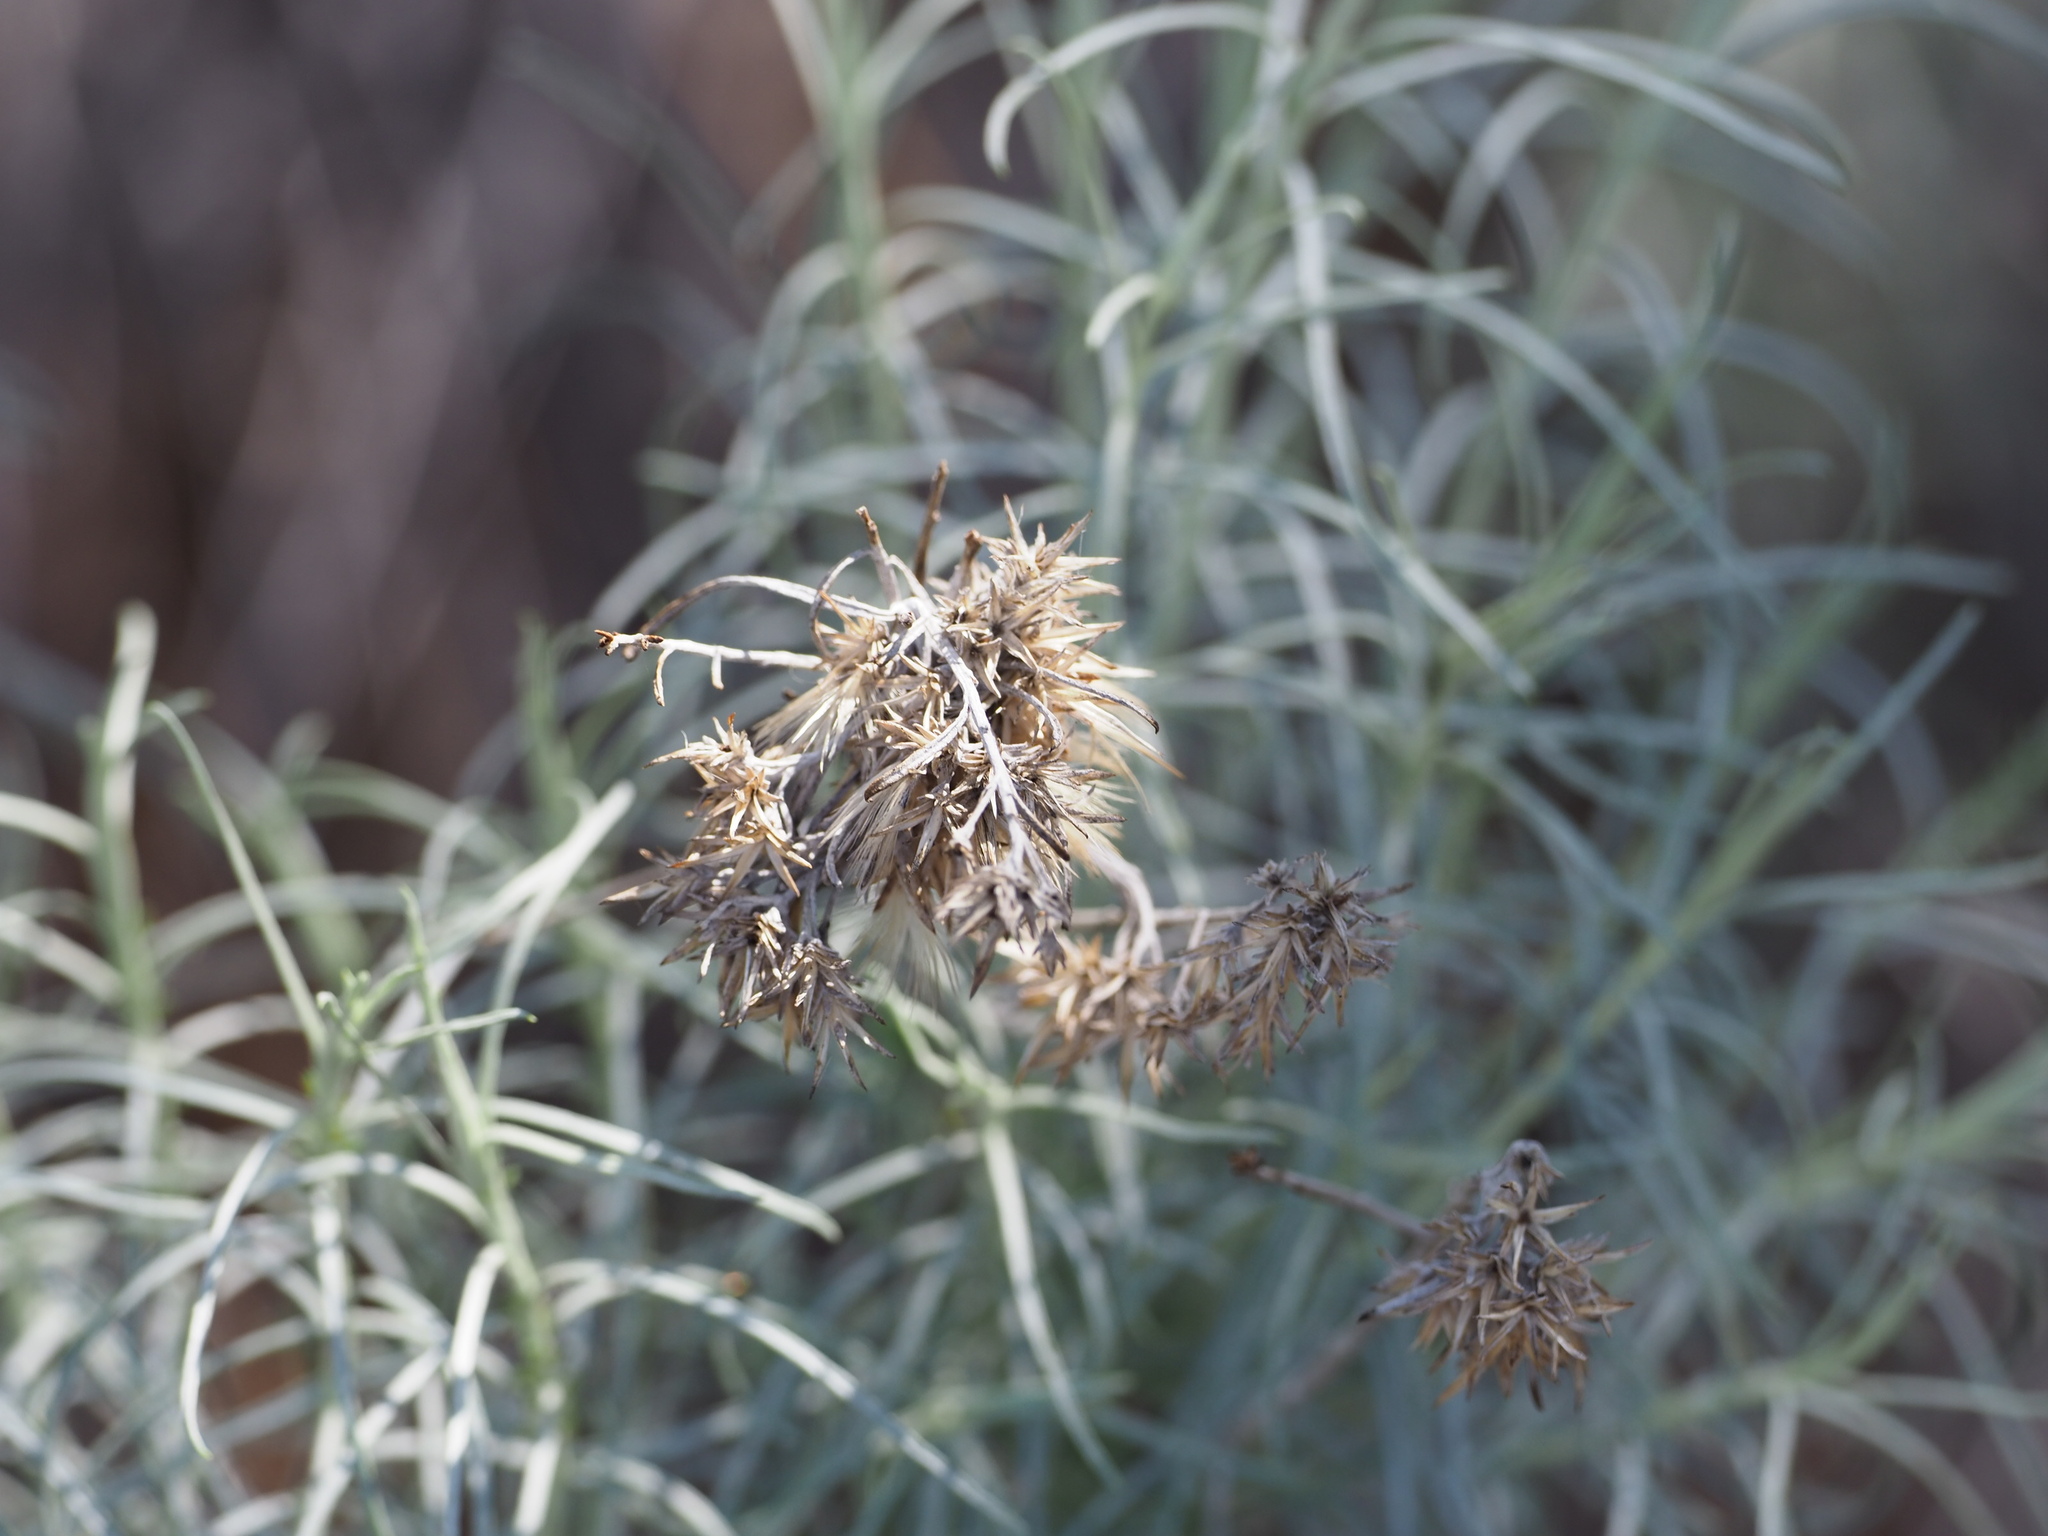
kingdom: Plantae
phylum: Tracheophyta
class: Magnoliopsida
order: Asterales
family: Asteraceae
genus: Ericameria
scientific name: Ericameria nauseosa
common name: Rubber rabbitbrush
